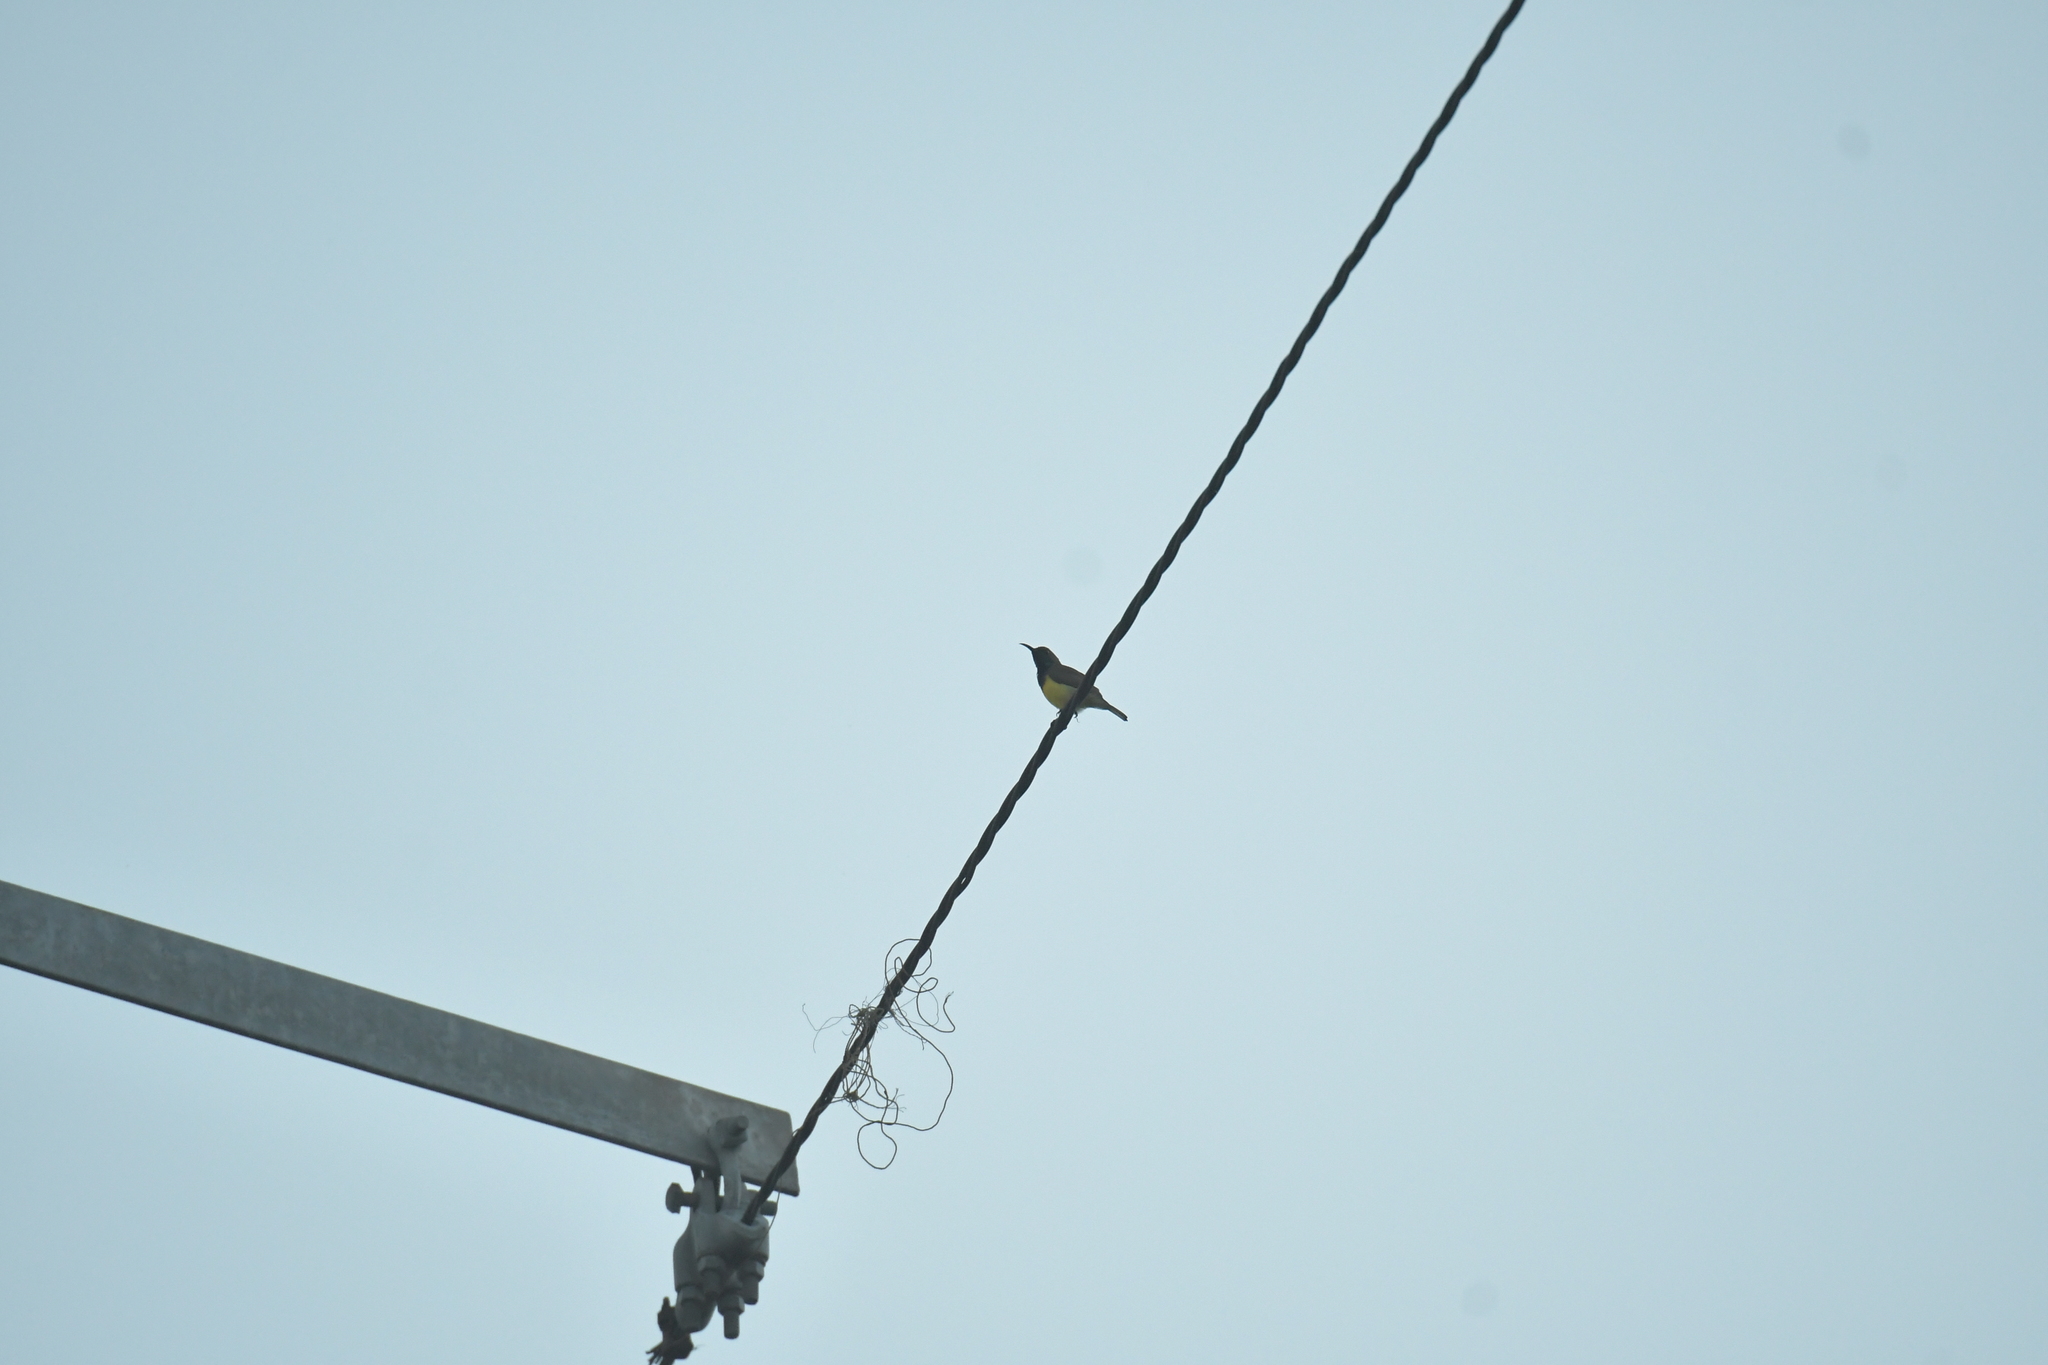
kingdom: Animalia
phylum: Chordata
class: Aves
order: Passeriformes
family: Nectariniidae
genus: Cinnyris
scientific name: Cinnyris jugularis
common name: Olive-backed sunbird
